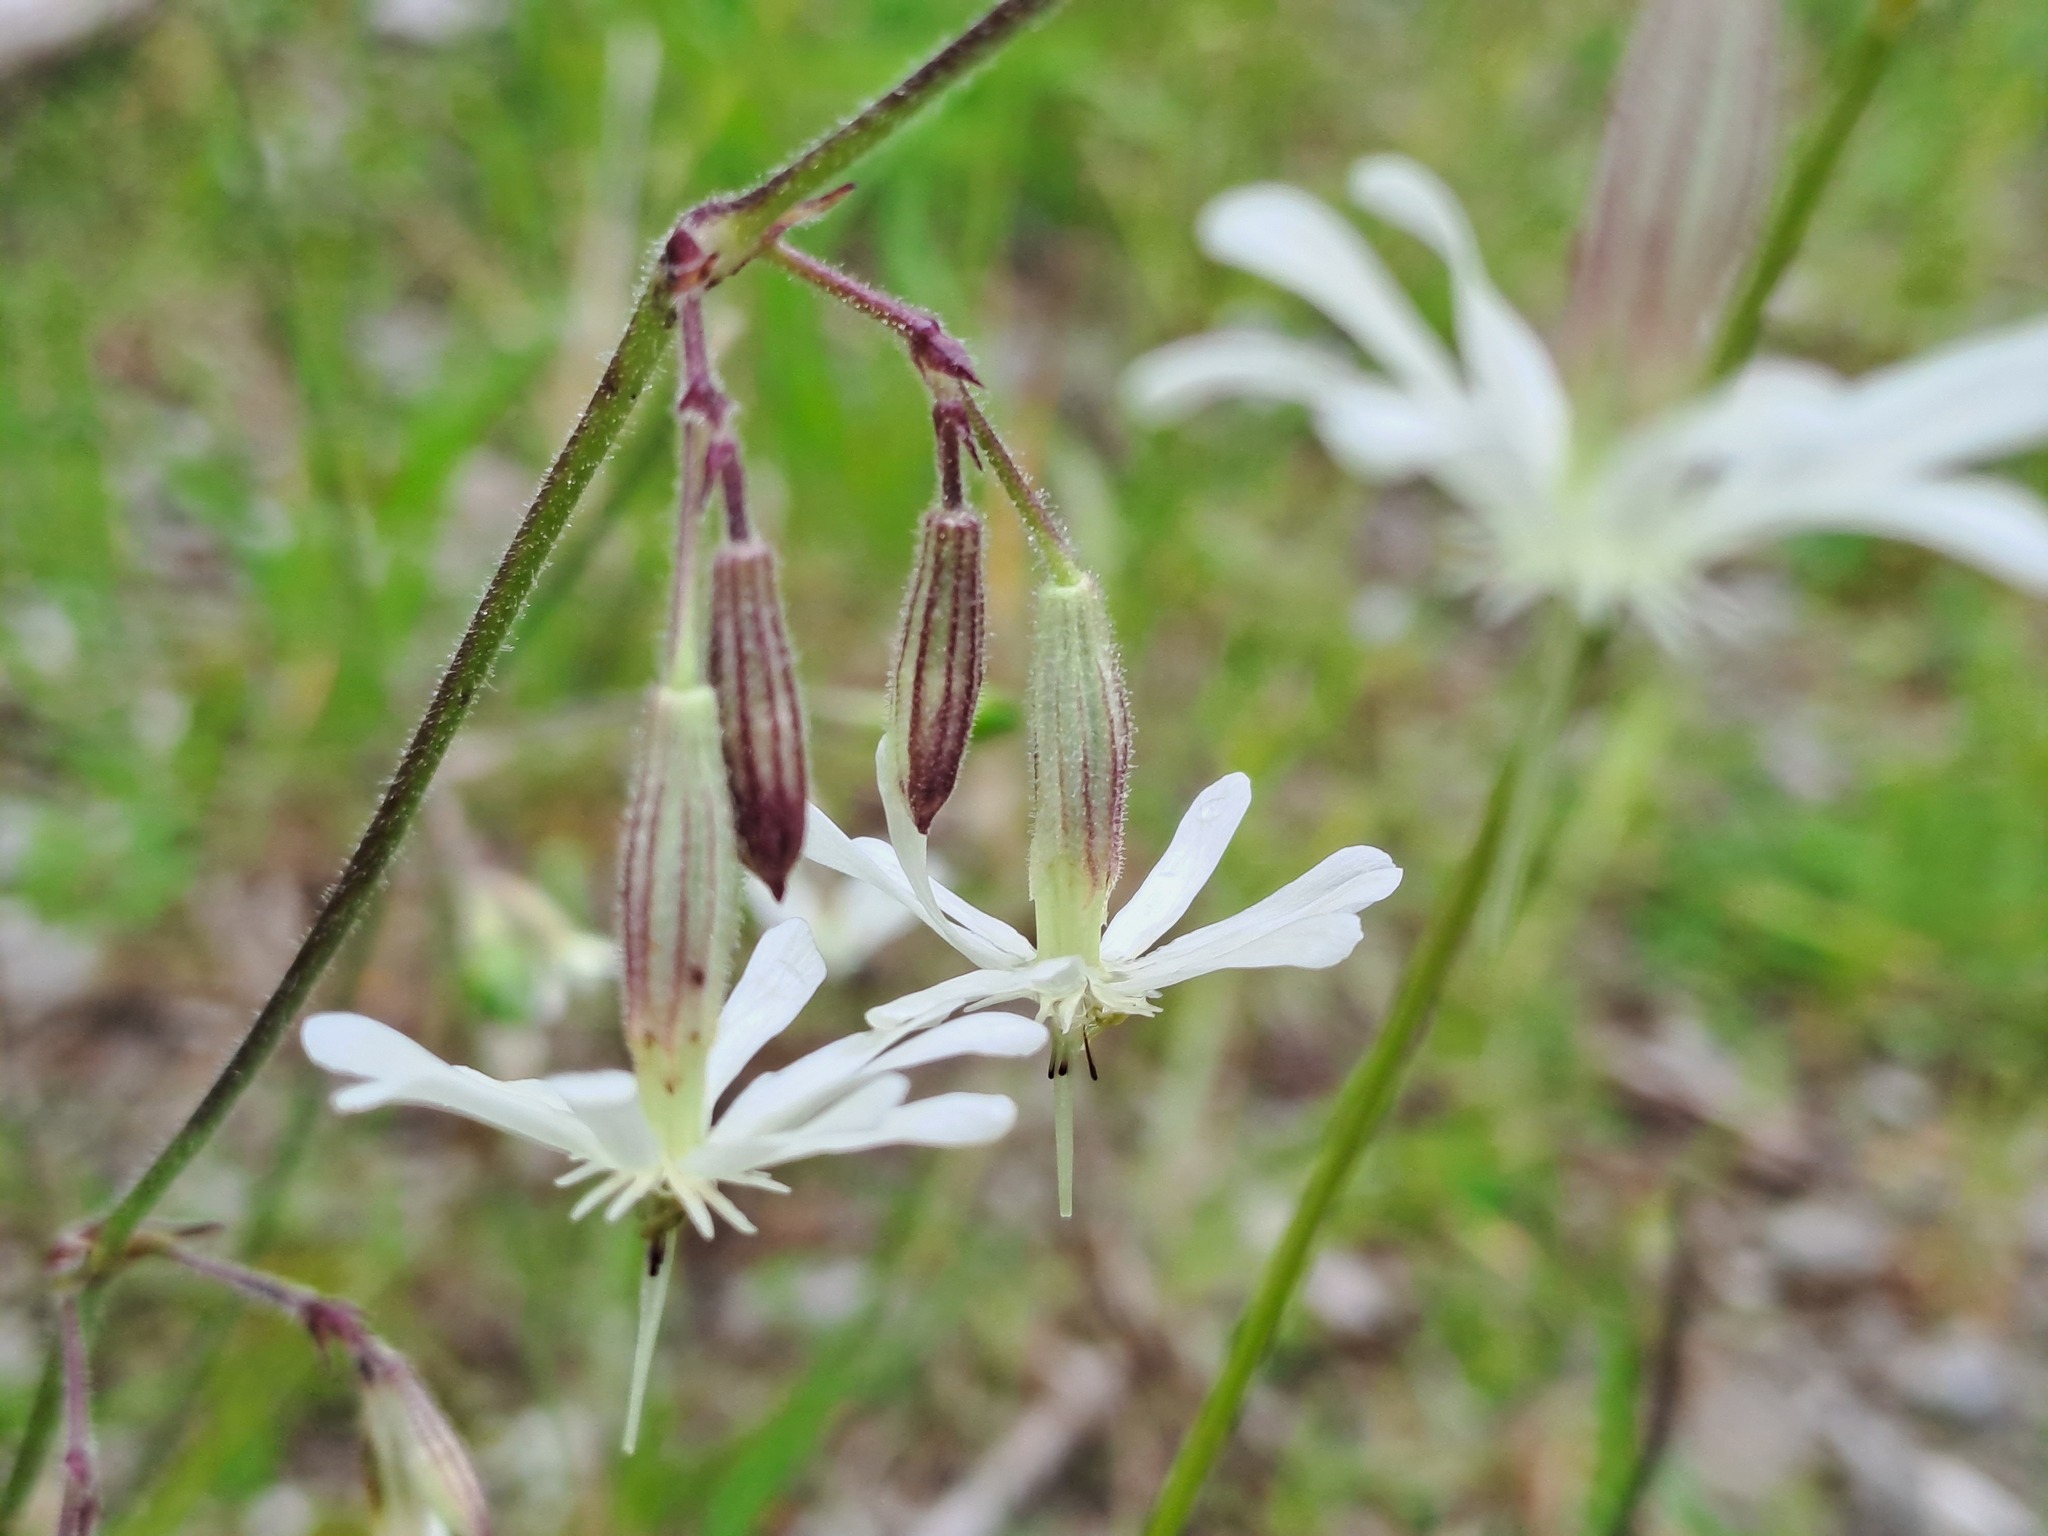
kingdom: Plantae
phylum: Tracheophyta
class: Magnoliopsida
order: Caryophyllales
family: Caryophyllaceae
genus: Silene
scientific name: Silene nutans
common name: Nottingham catchfly
